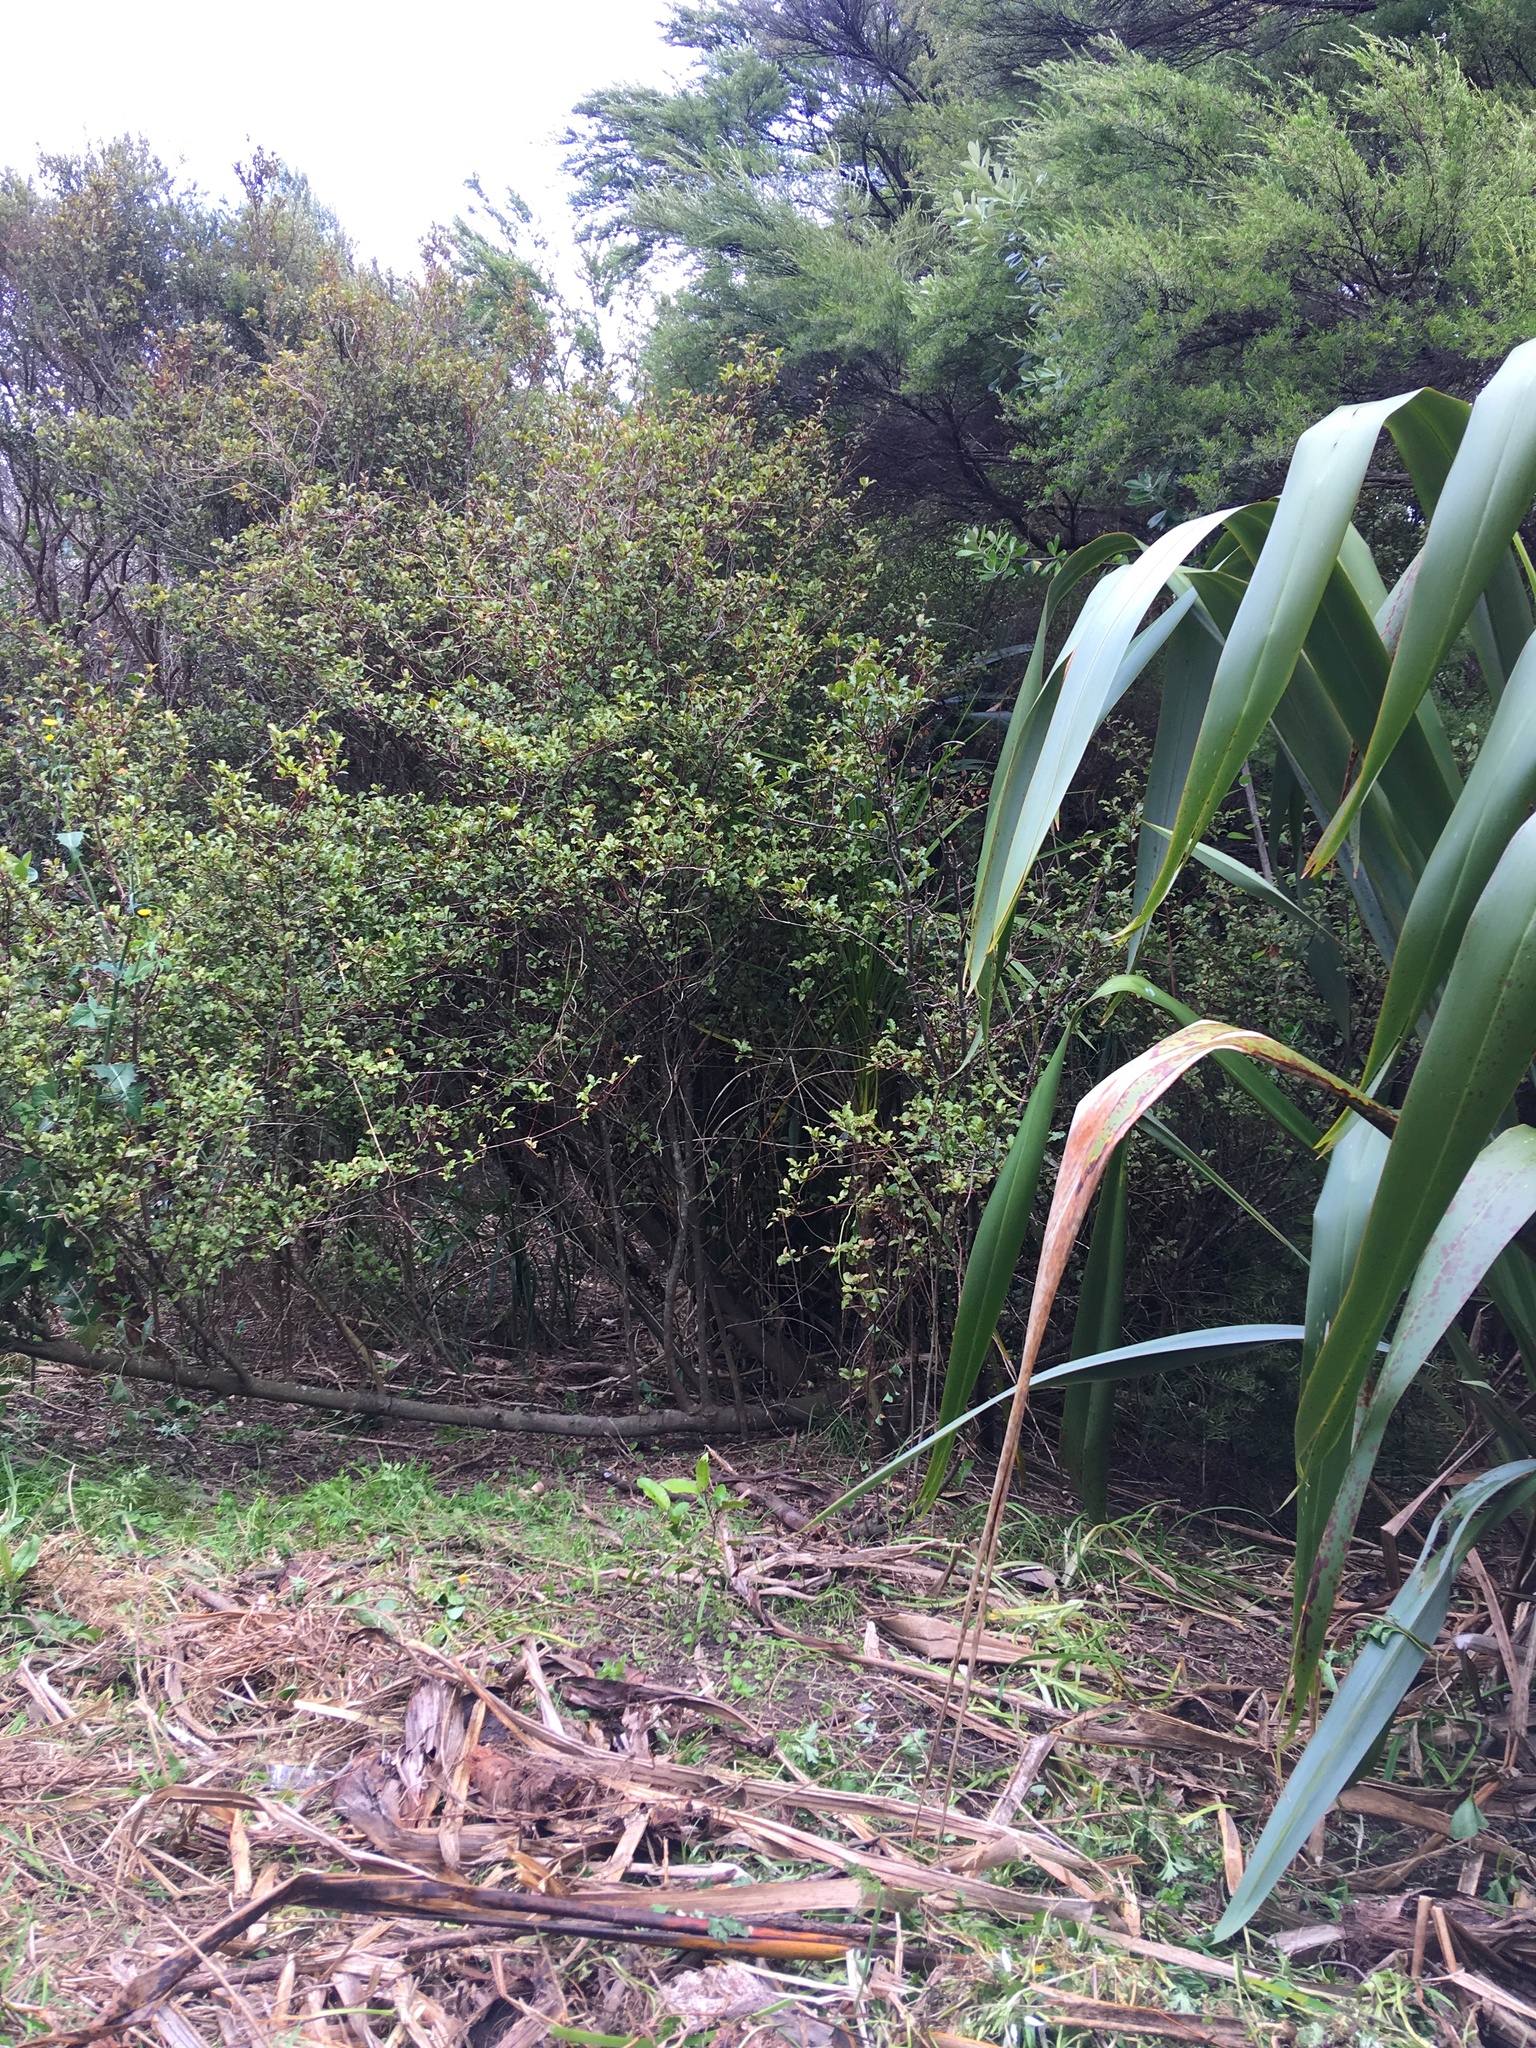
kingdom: Plantae
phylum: Tracheophyta
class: Magnoliopsida
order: Ericales
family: Primulaceae
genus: Myrsine
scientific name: Myrsine australis
